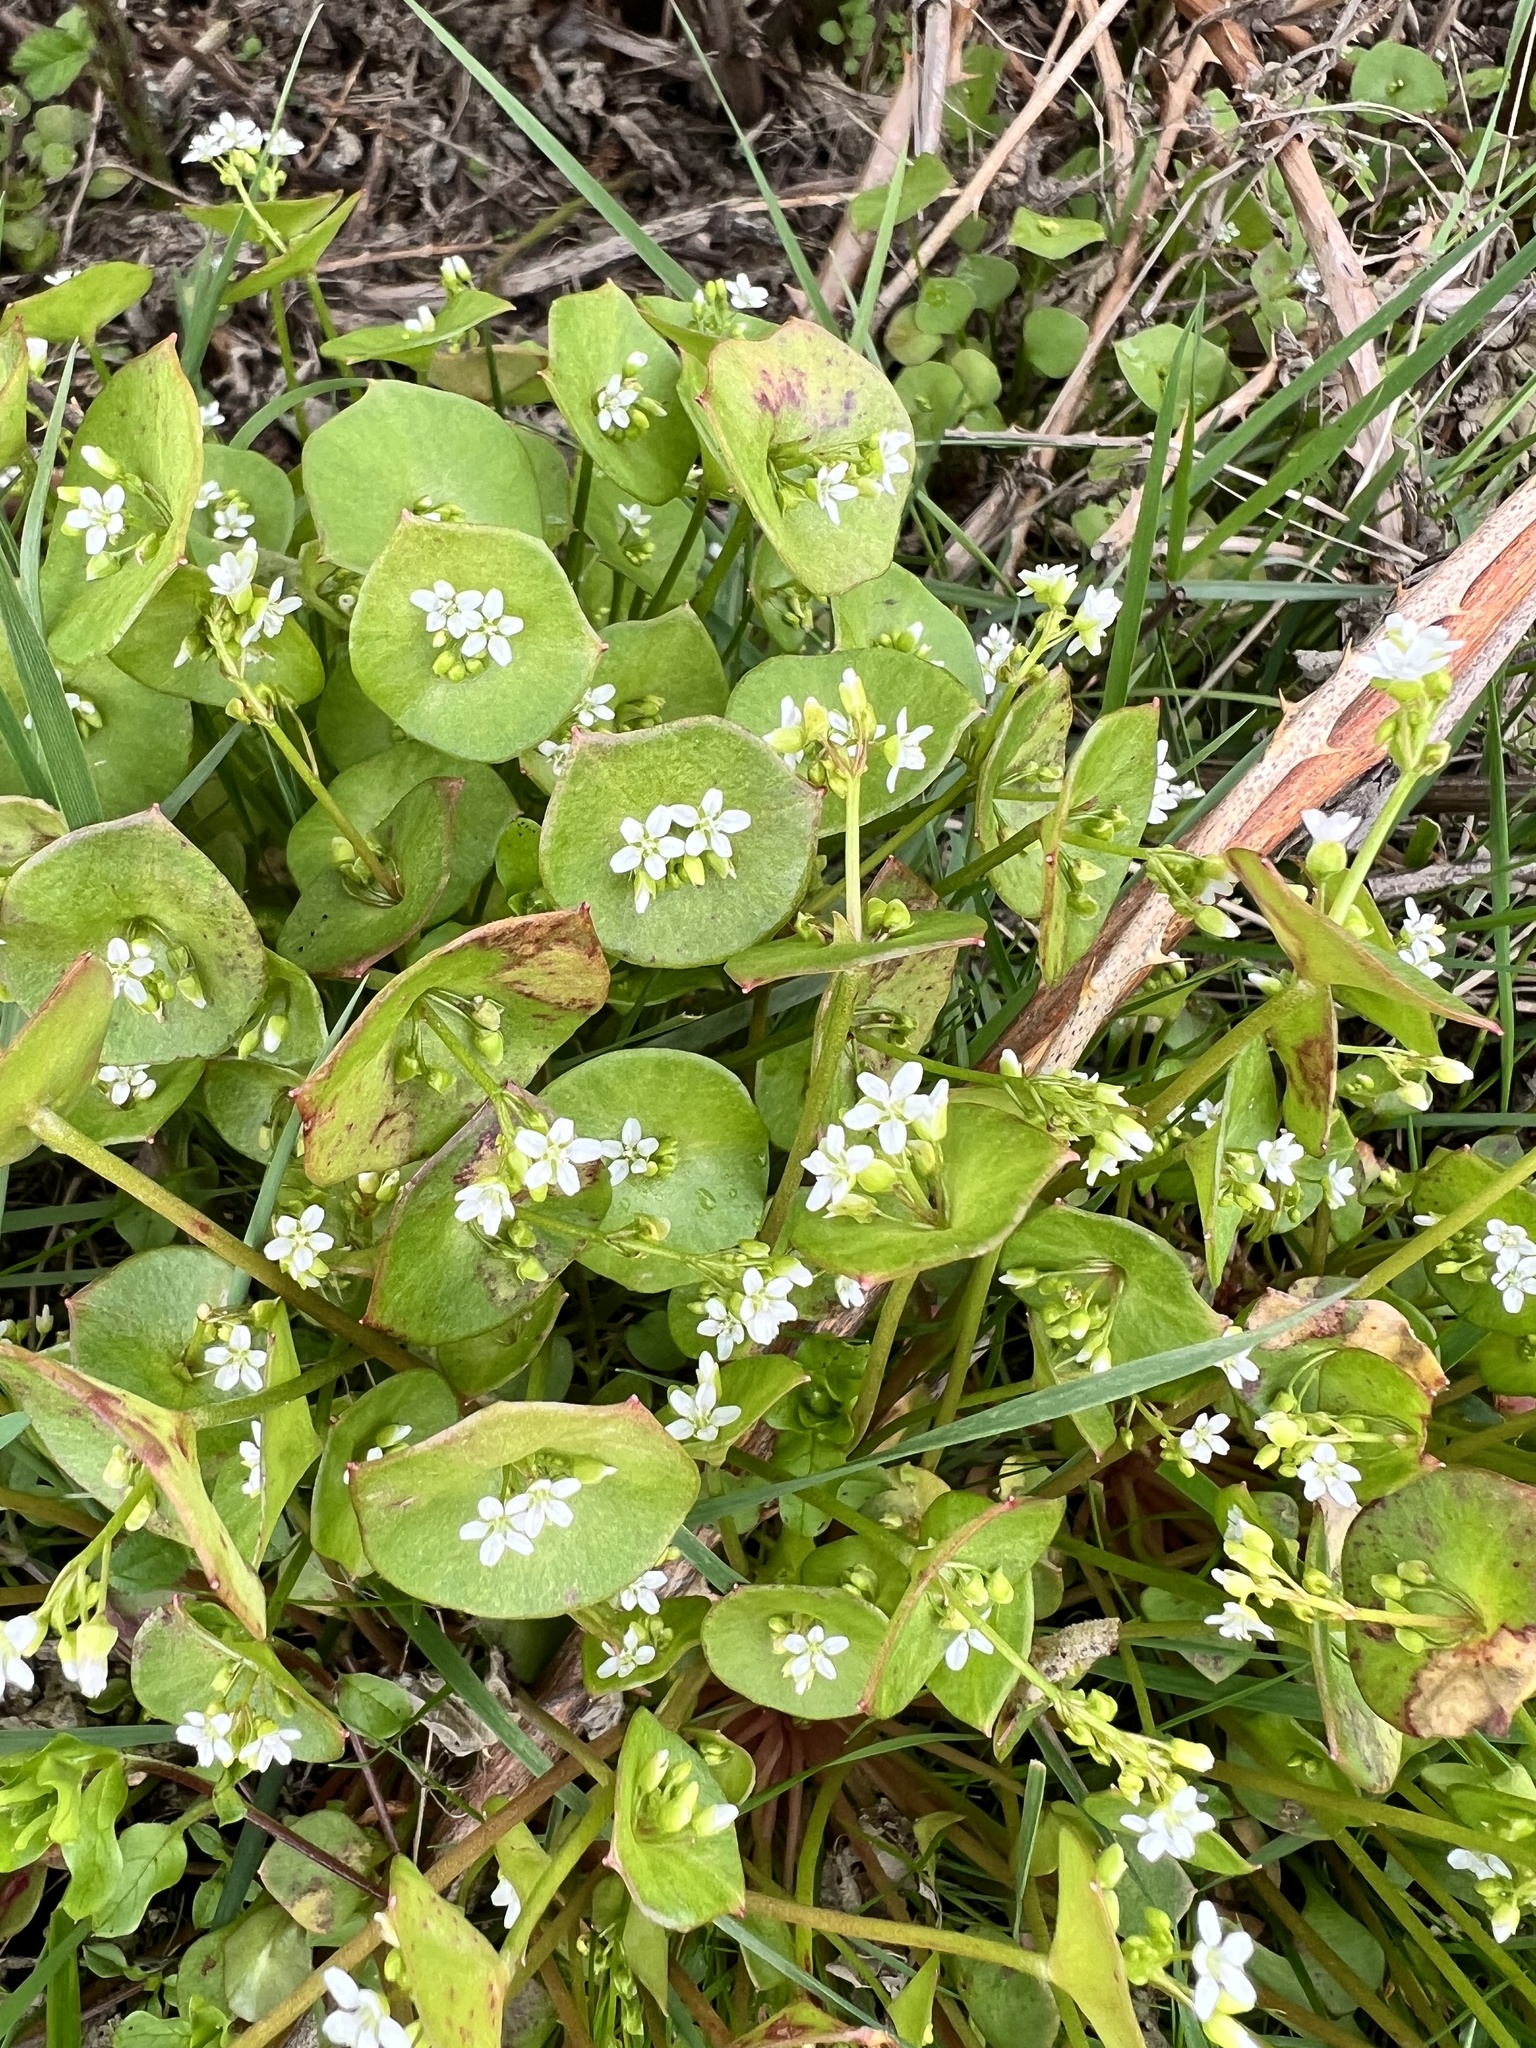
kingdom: Plantae
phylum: Tracheophyta
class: Magnoliopsida
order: Caryophyllales
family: Montiaceae
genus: Claytonia
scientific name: Claytonia perfoliata
